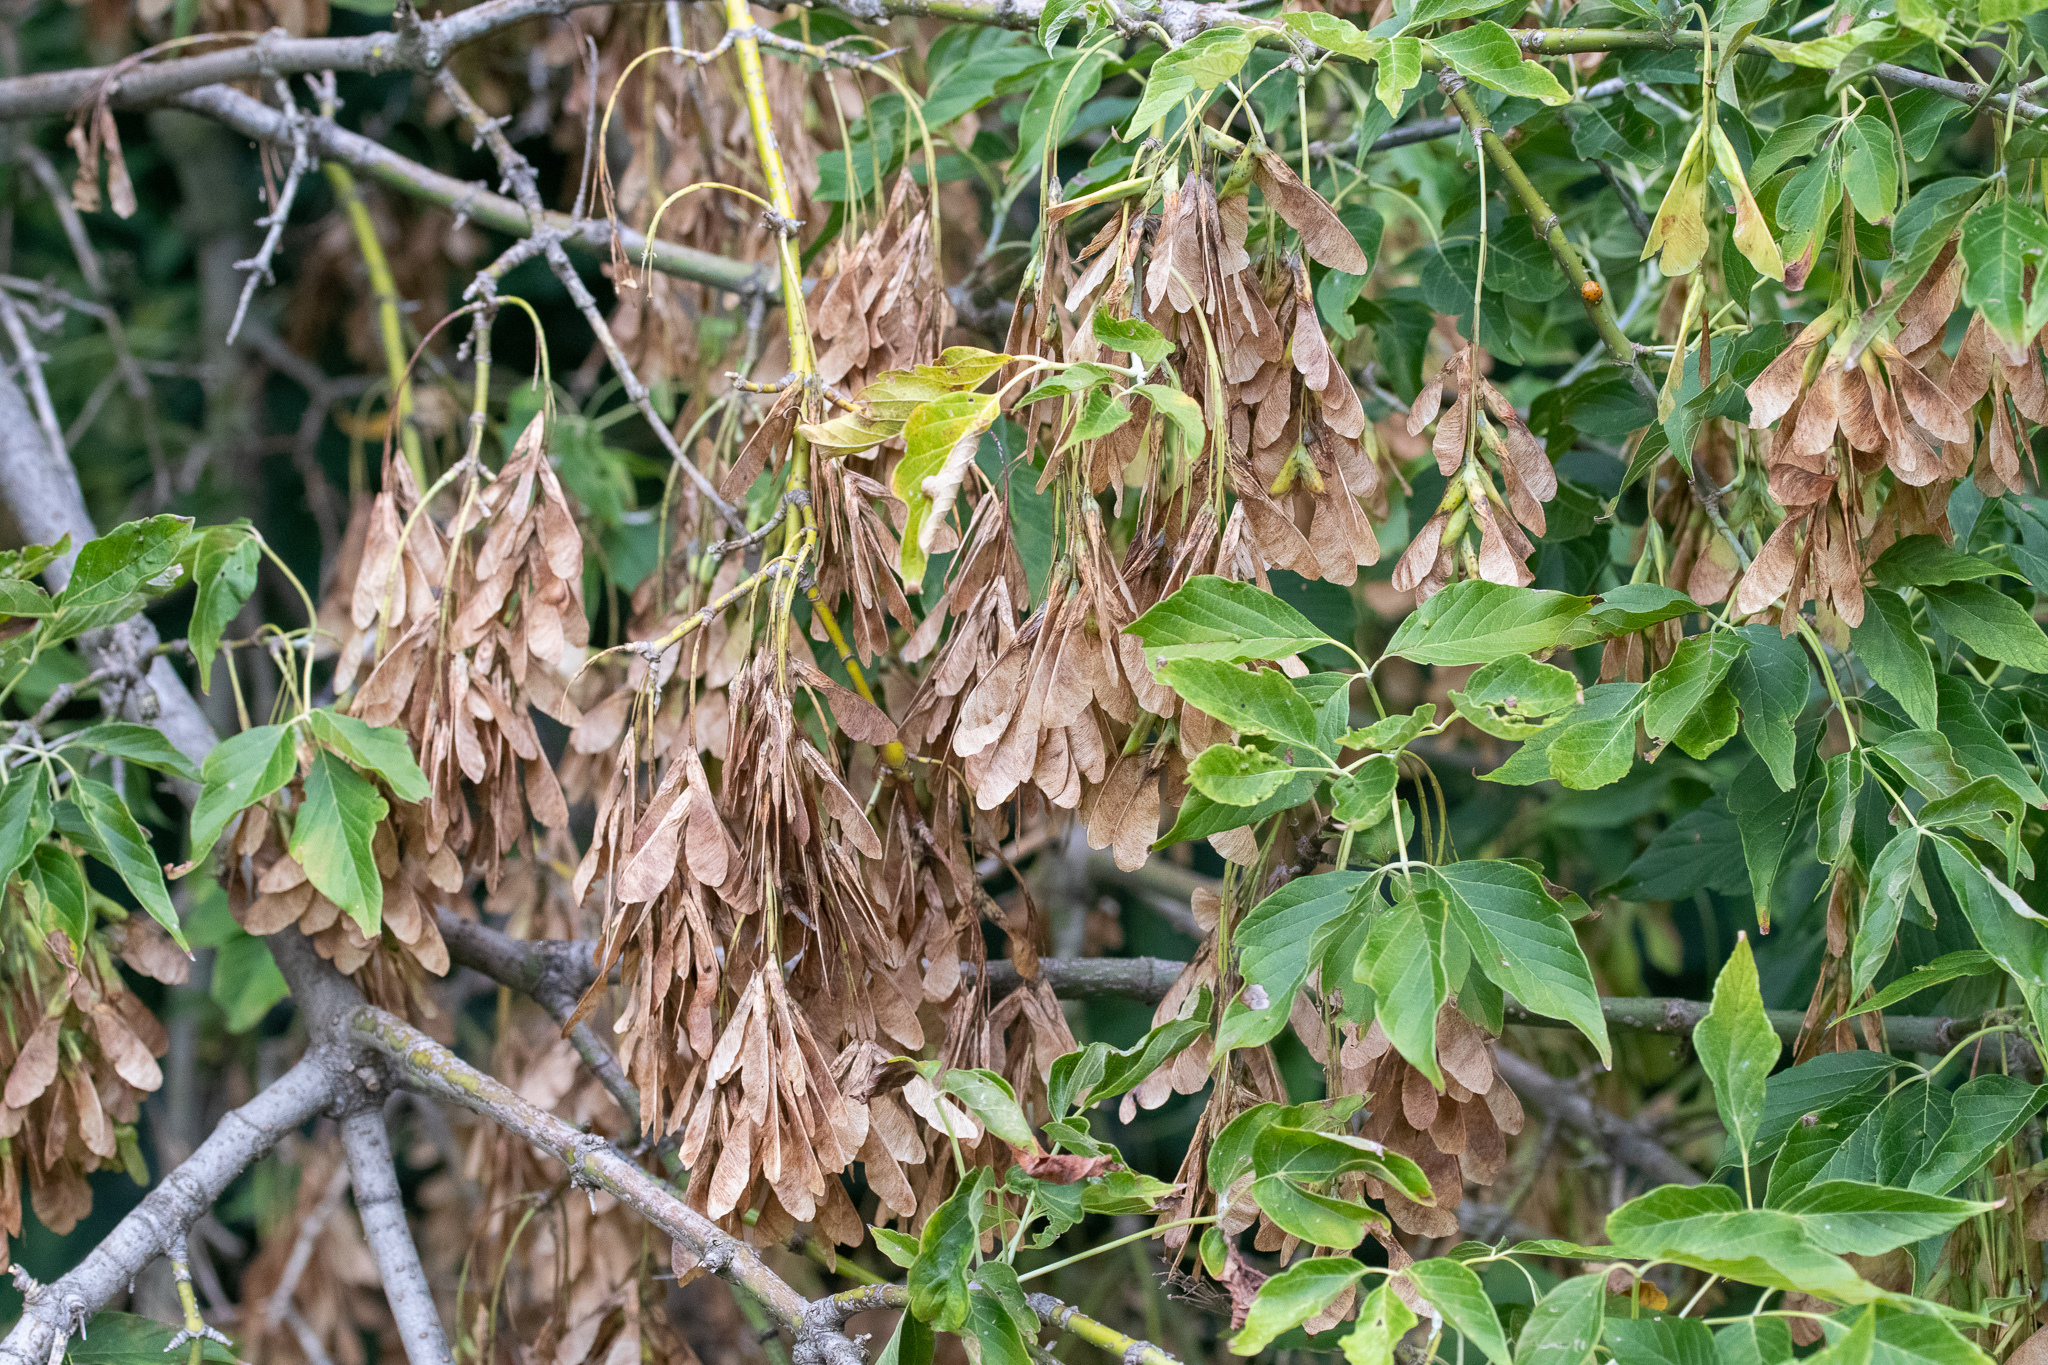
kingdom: Plantae
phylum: Tracheophyta
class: Magnoliopsida
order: Sapindales
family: Sapindaceae
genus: Acer
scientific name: Acer negundo
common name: Ashleaf maple
